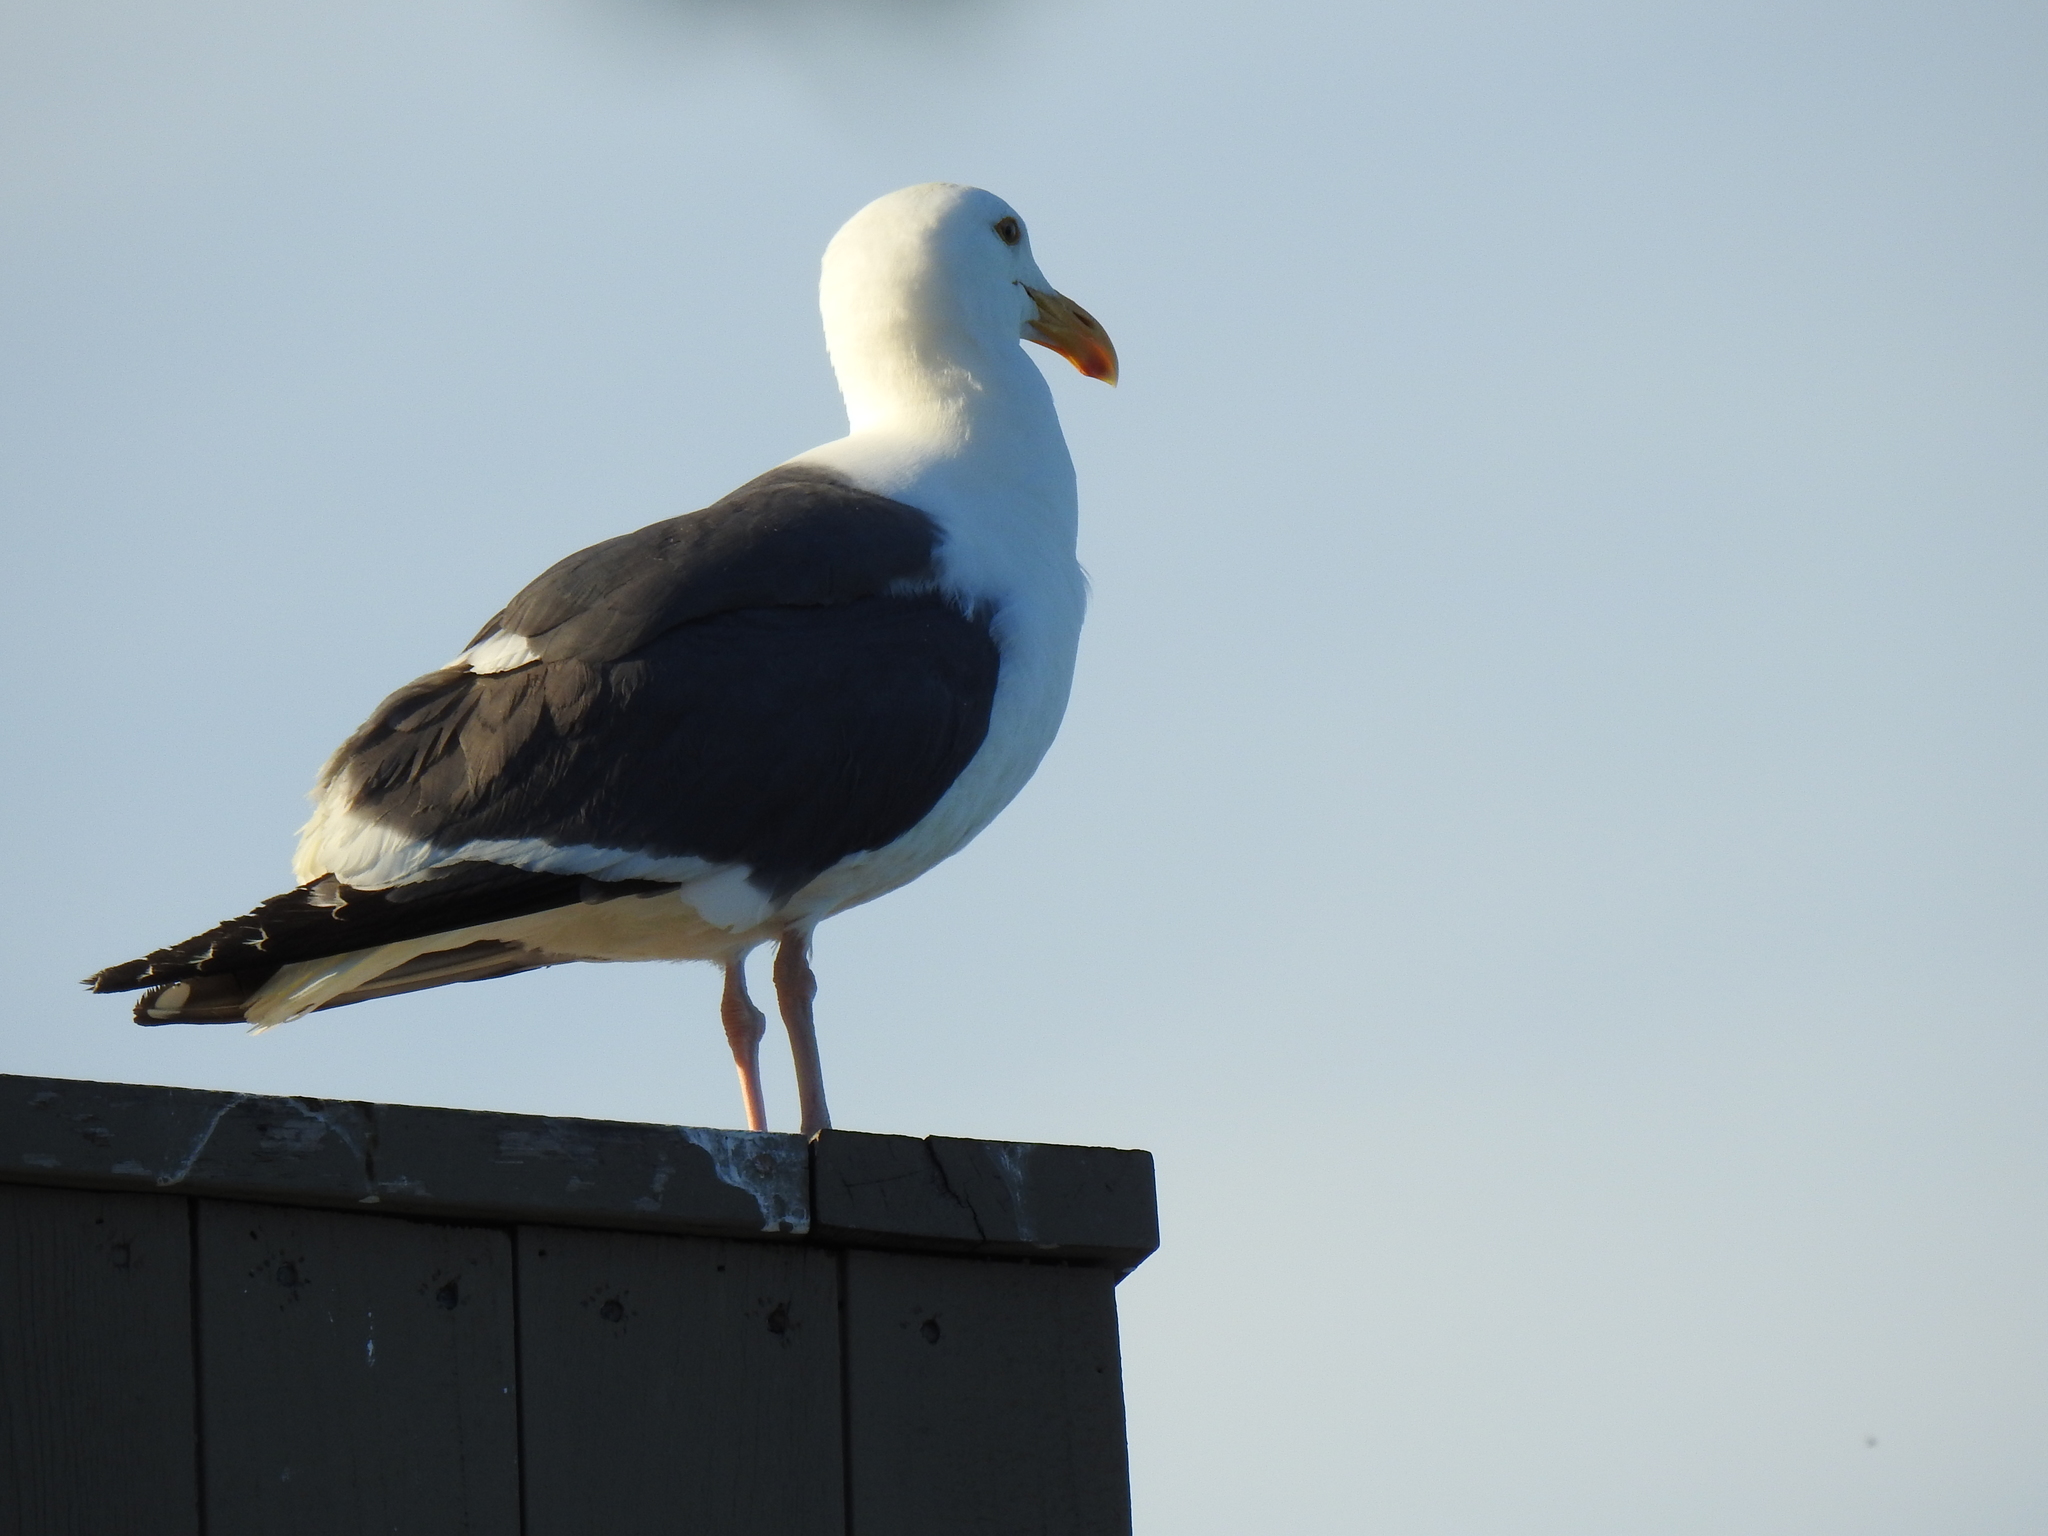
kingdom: Animalia
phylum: Chordata
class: Aves
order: Charadriiformes
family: Laridae
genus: Larus
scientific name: Larus occidentalis
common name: Western gull
